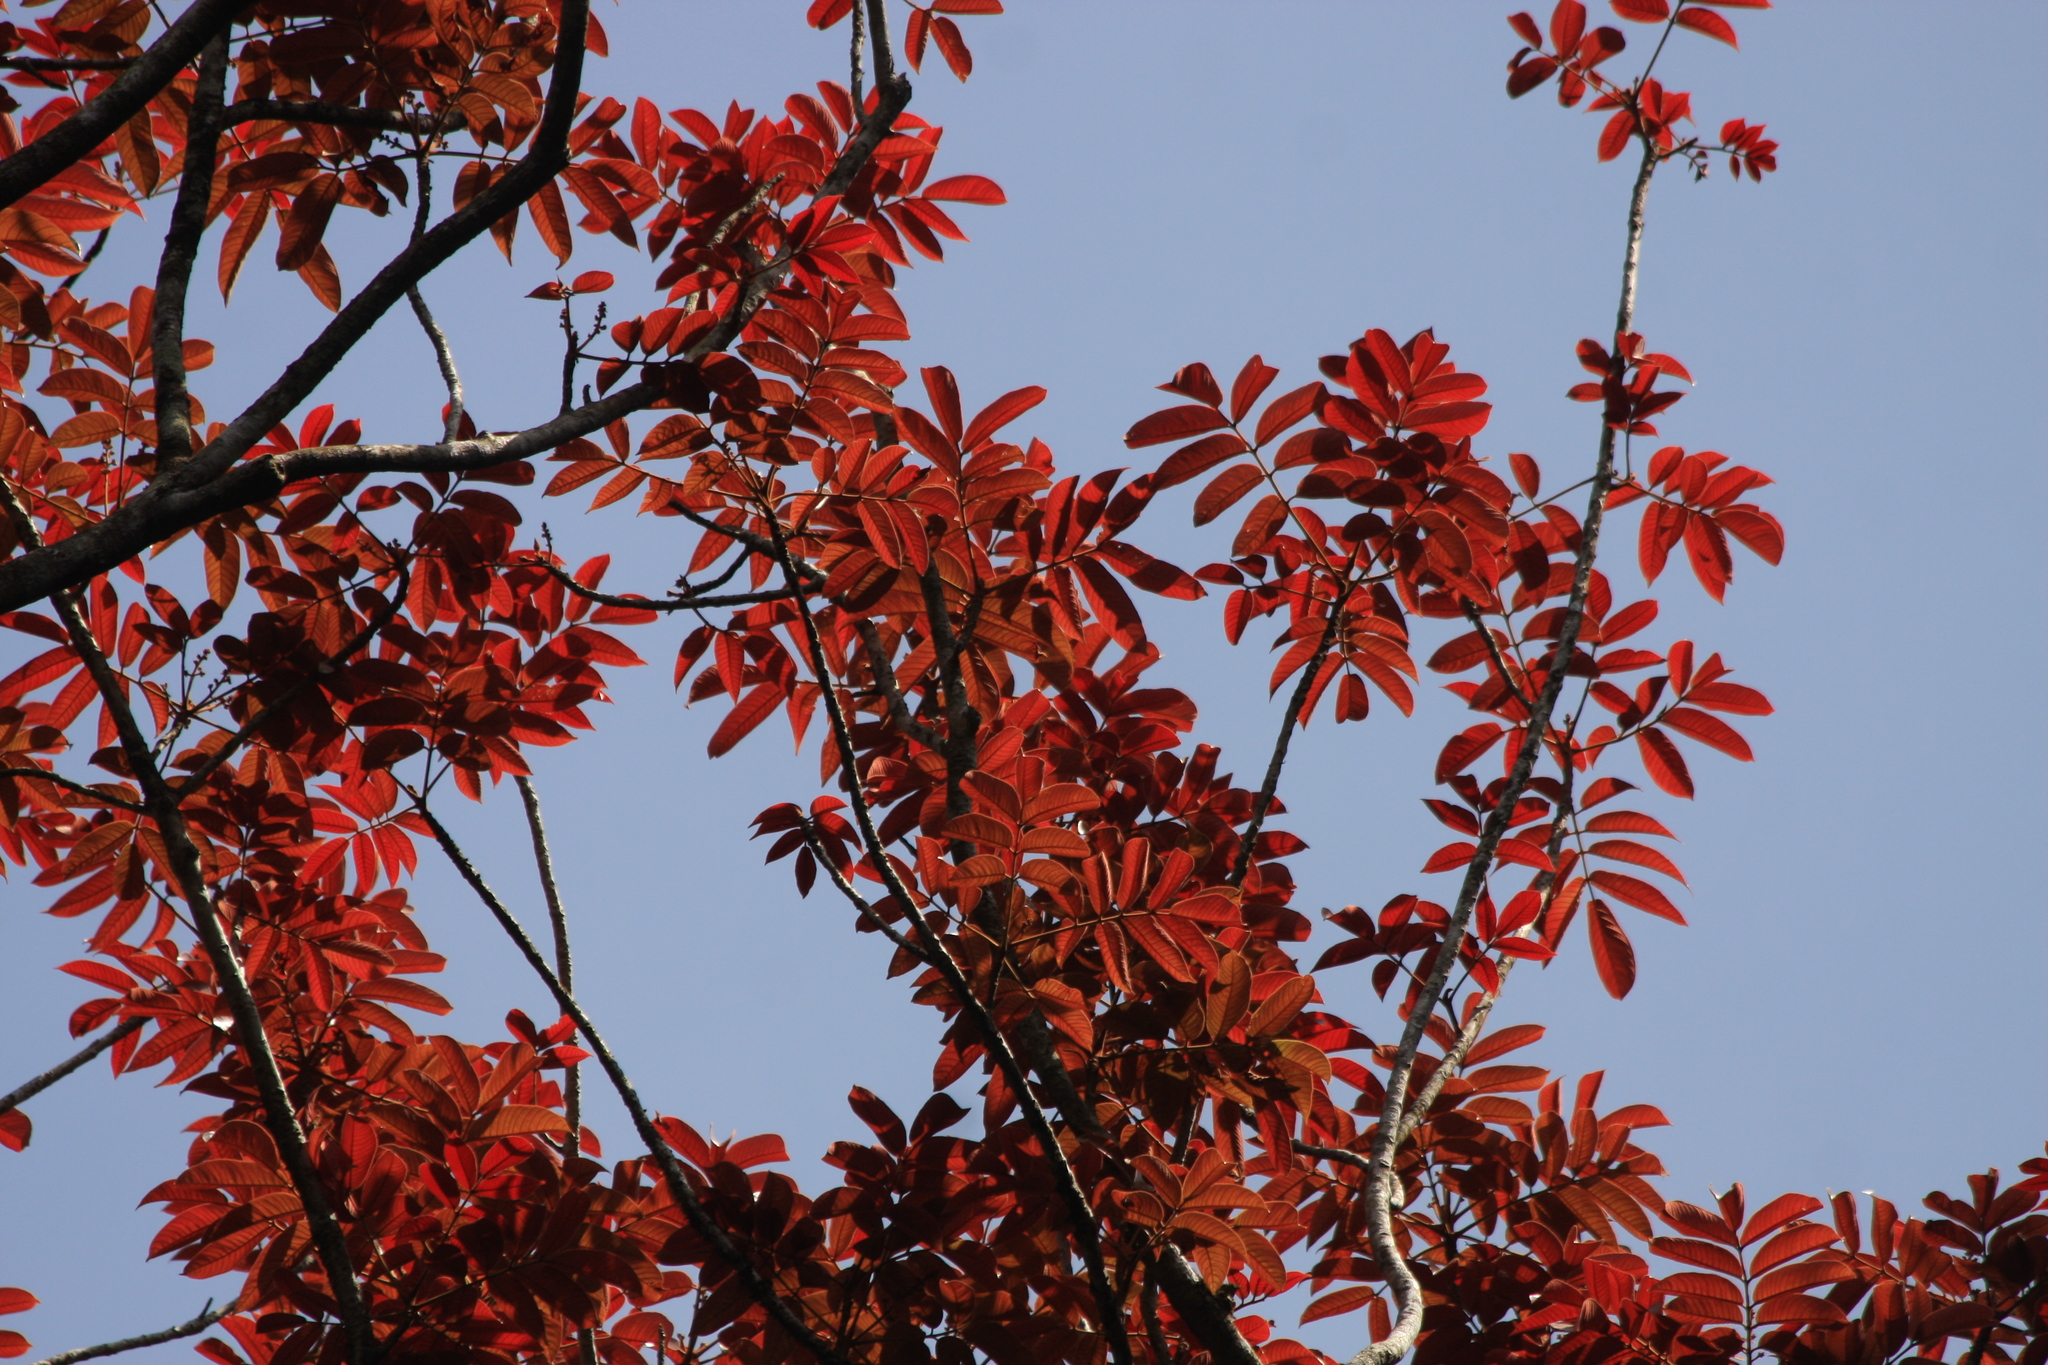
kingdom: Plantae
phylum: Tracheophyta
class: Magnoliopsida
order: Sapindales
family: Burseraceae
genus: Canarium
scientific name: Canarium strictum
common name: Indian white-mahogany
